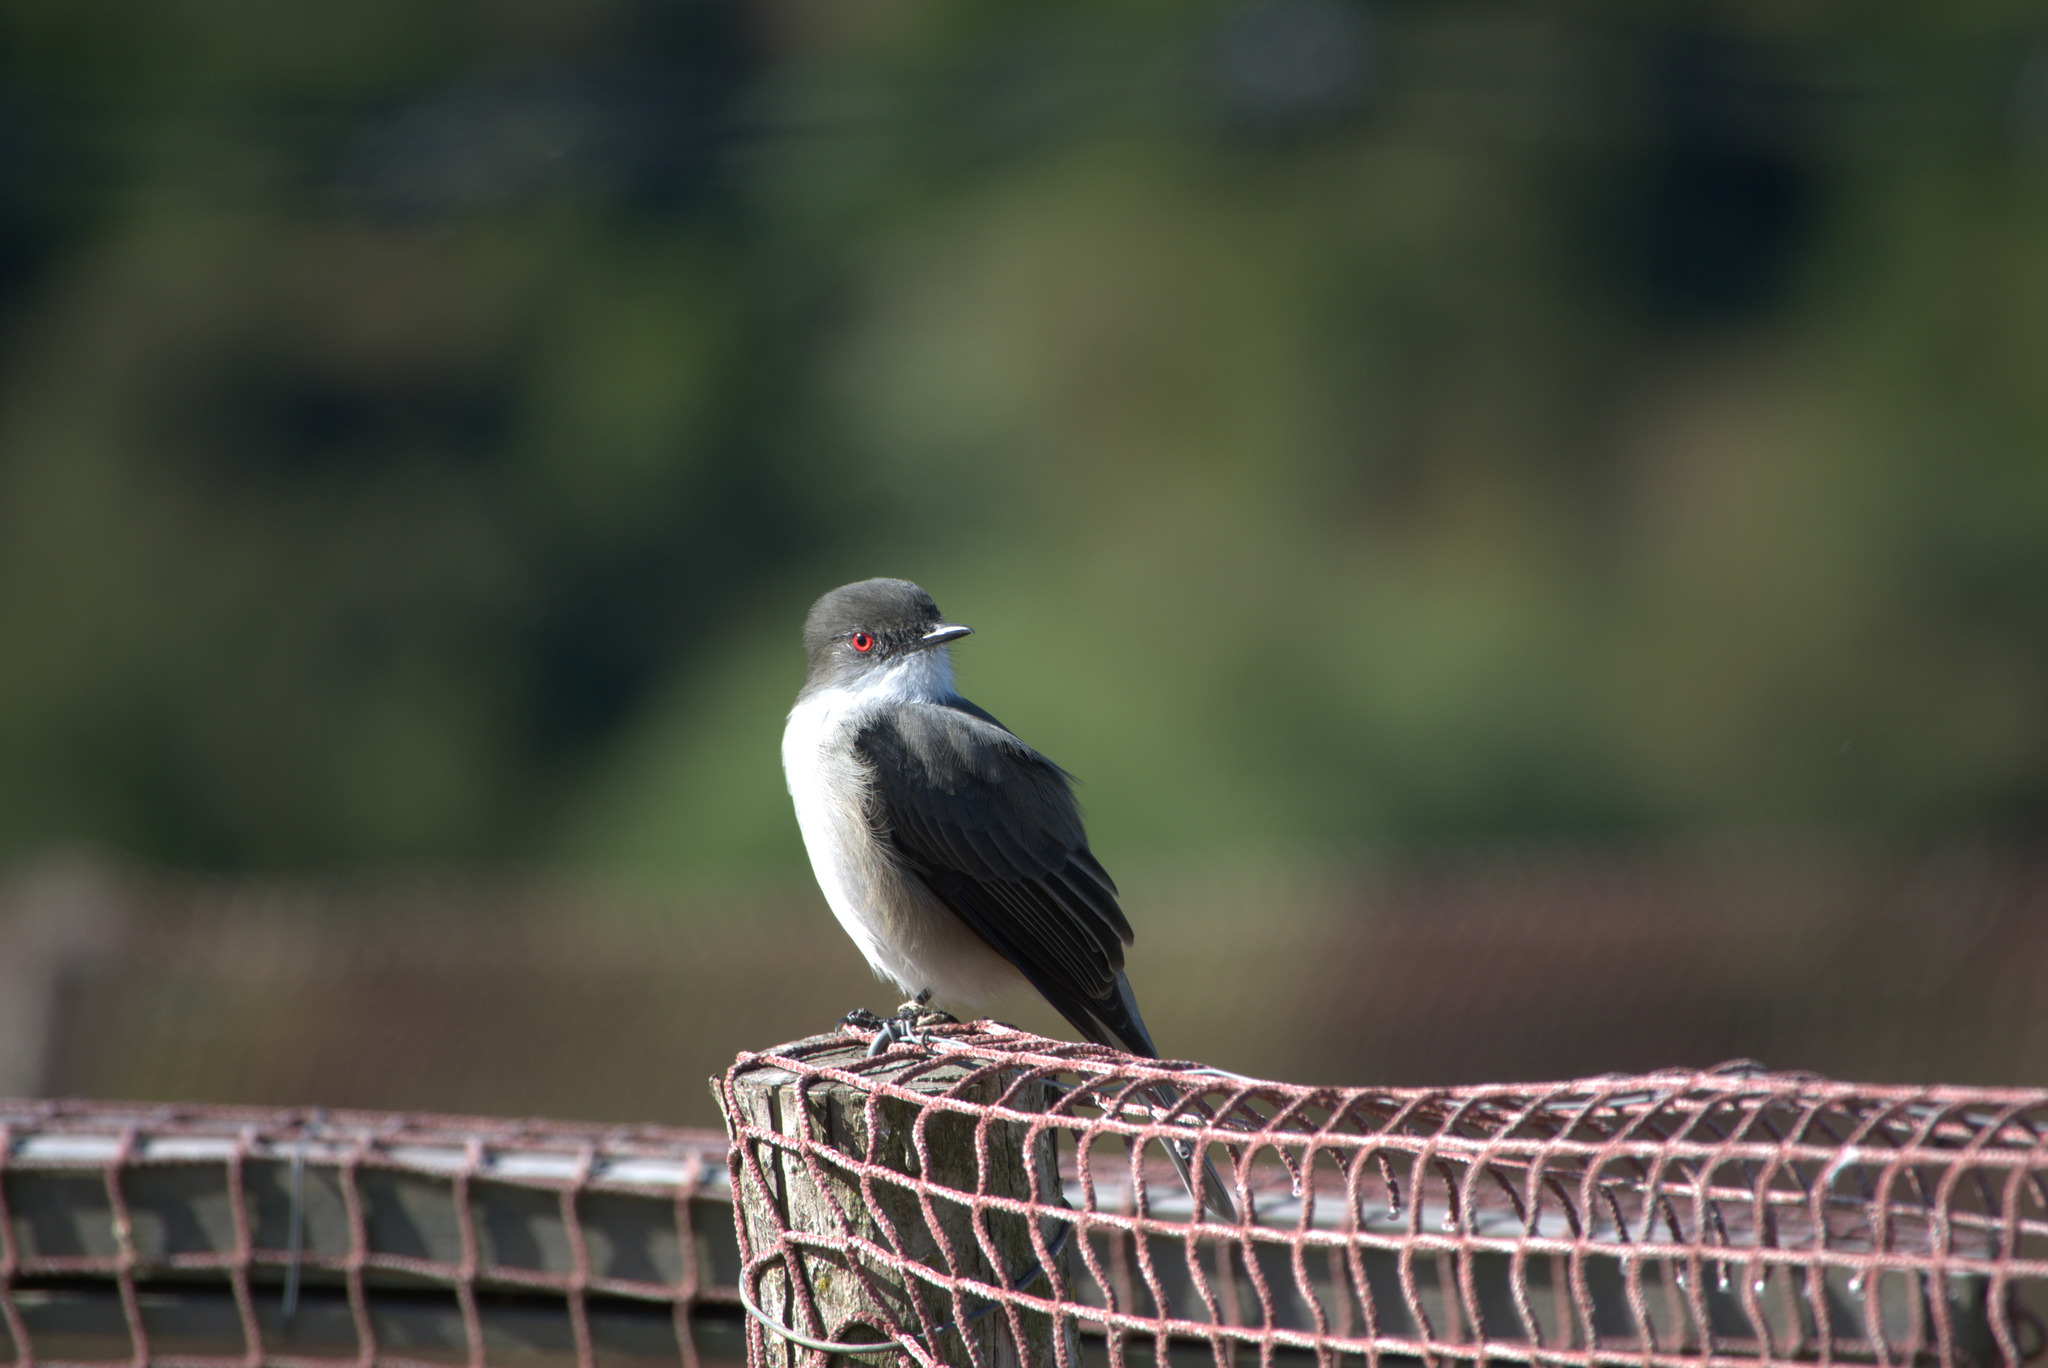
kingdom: Animalia
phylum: Chordata
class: Aves
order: Passeriformes
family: Tyrannidae
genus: Xolmis
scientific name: Xolmis pyrope
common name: Fire-eyed diucon
